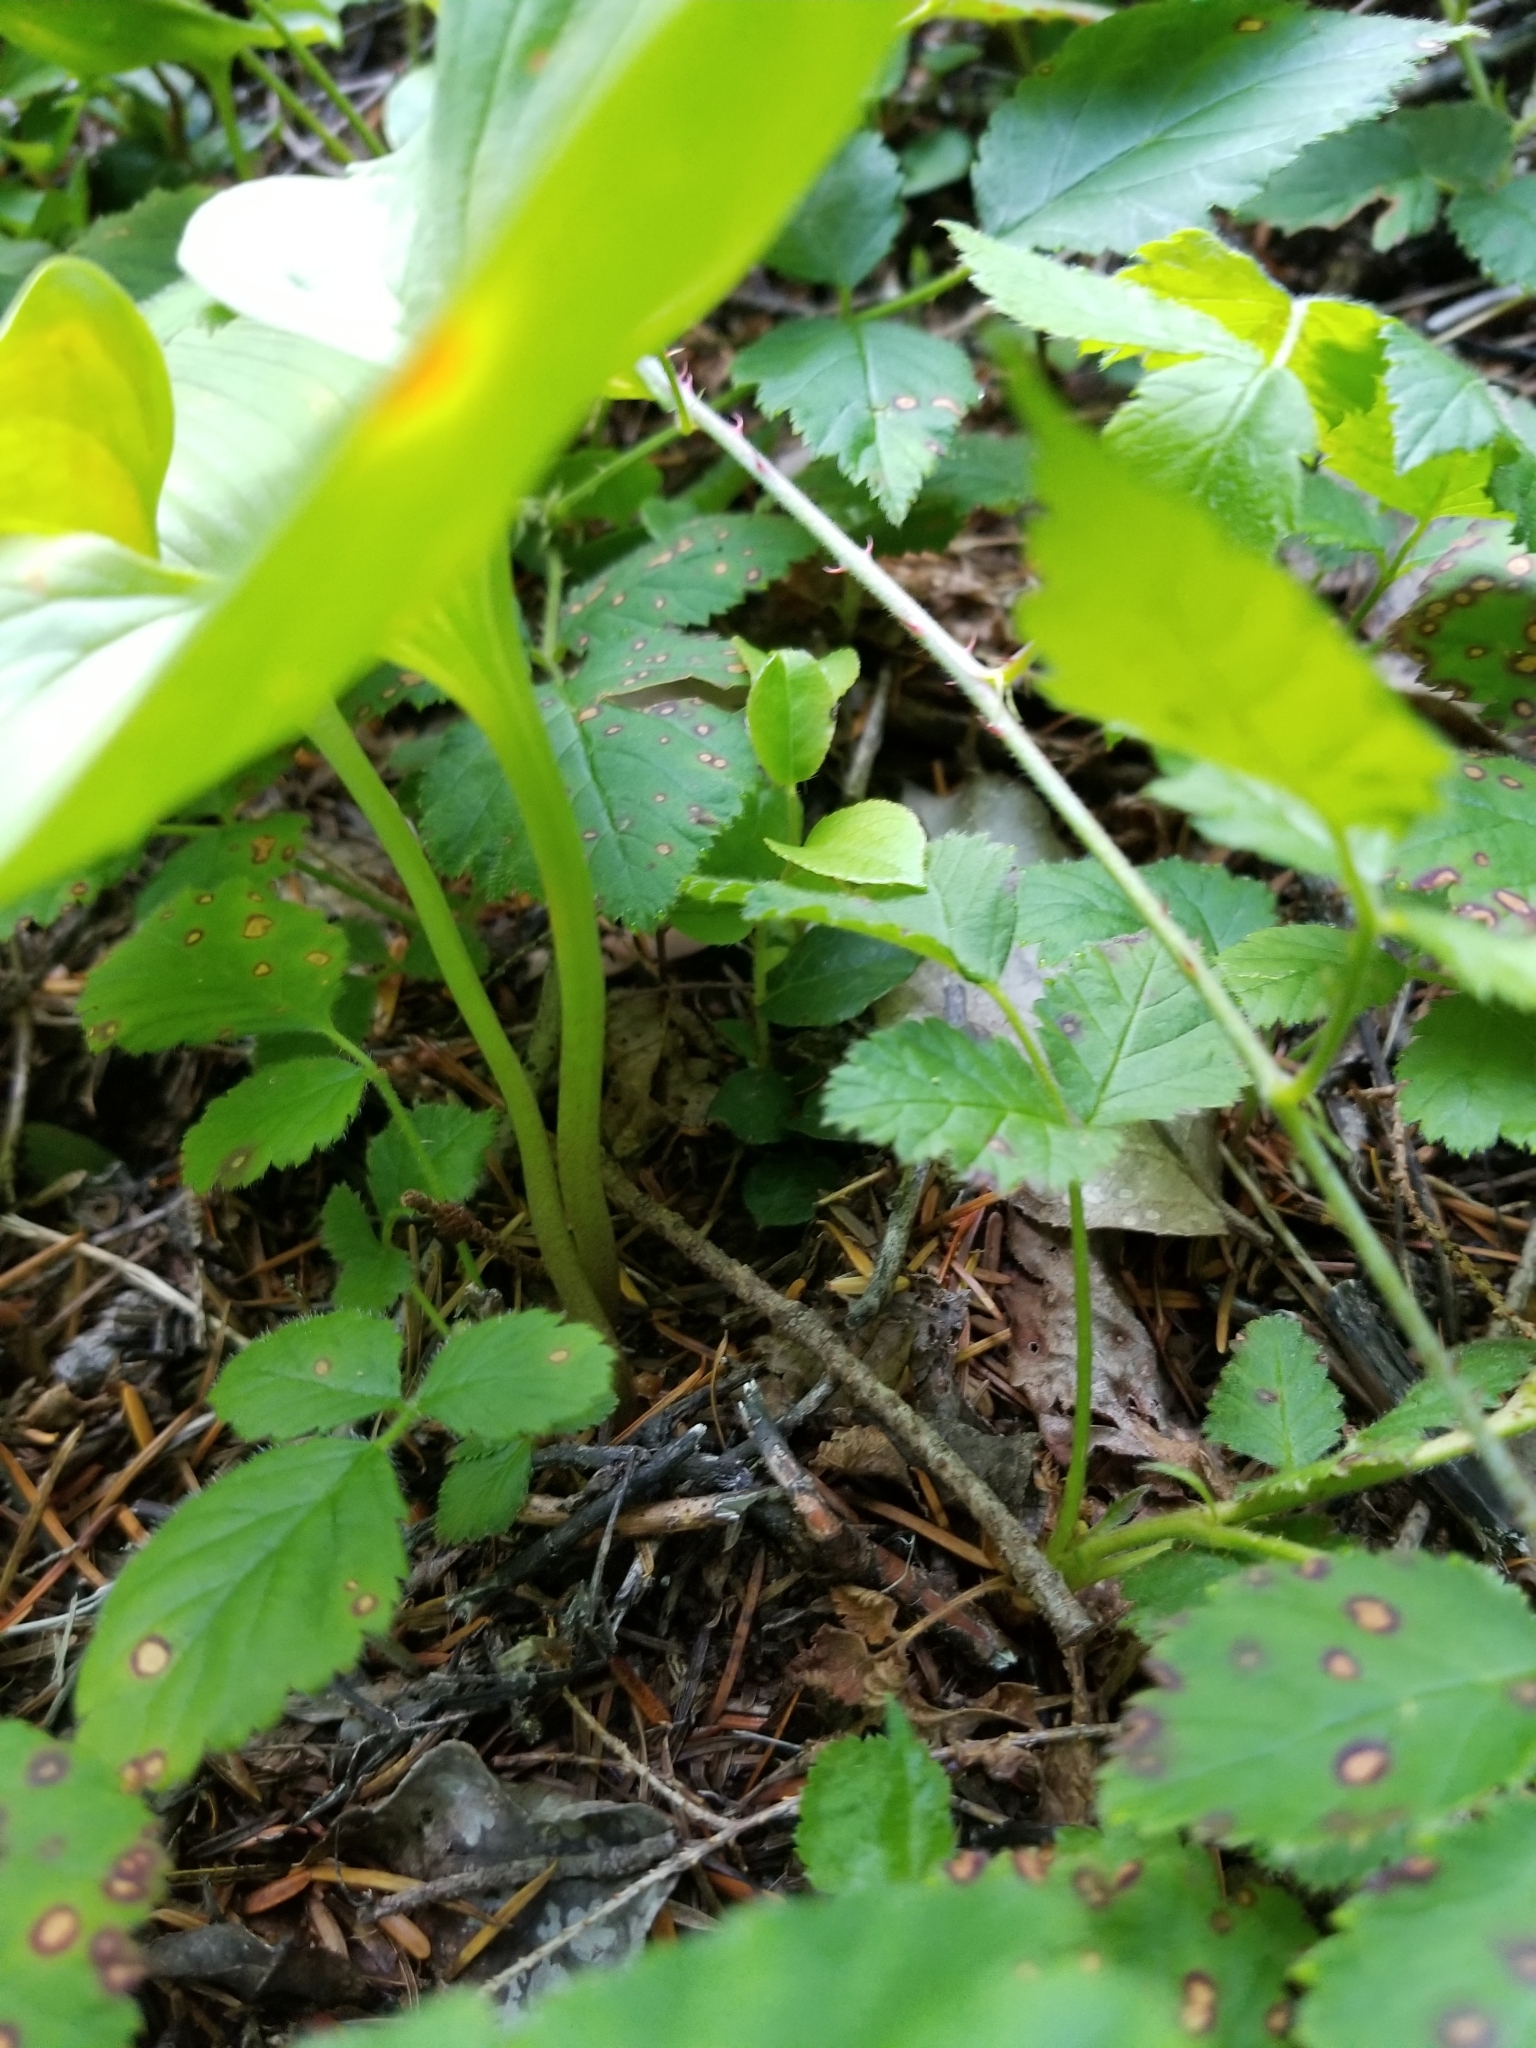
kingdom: Plantae
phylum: Tracheophyta
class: Liliopsida
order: Asparagales
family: Asparagaceae
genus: Maianthemum
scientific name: Maianthemum dilatatum
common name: False lily-of-the-valley
